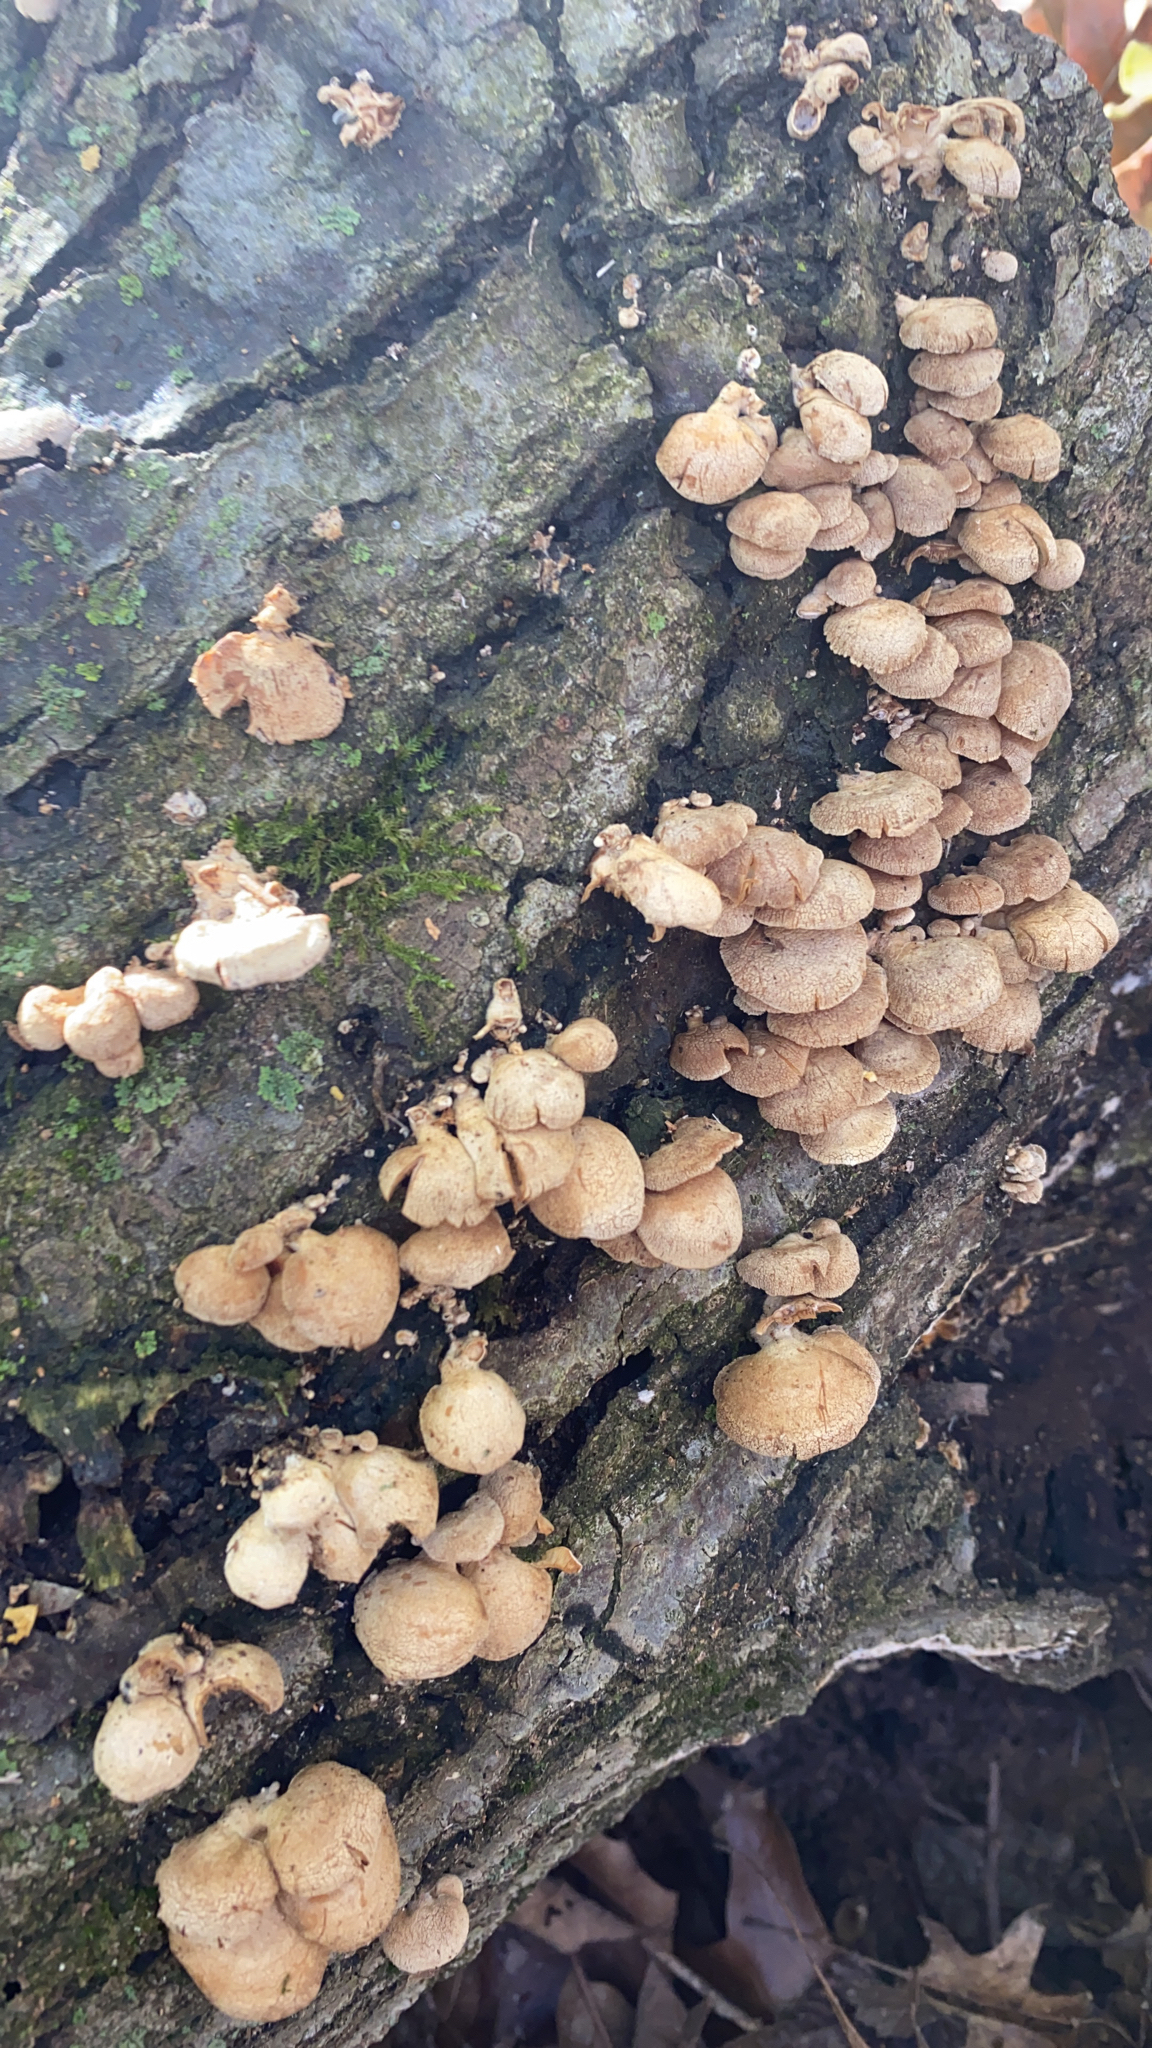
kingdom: Fungi
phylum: Basidiomycota
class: Agaricomycetes
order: Agaricales
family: Mycenaceae
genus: Panellus
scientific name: Panellus stipticus
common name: Bitter oysterling
